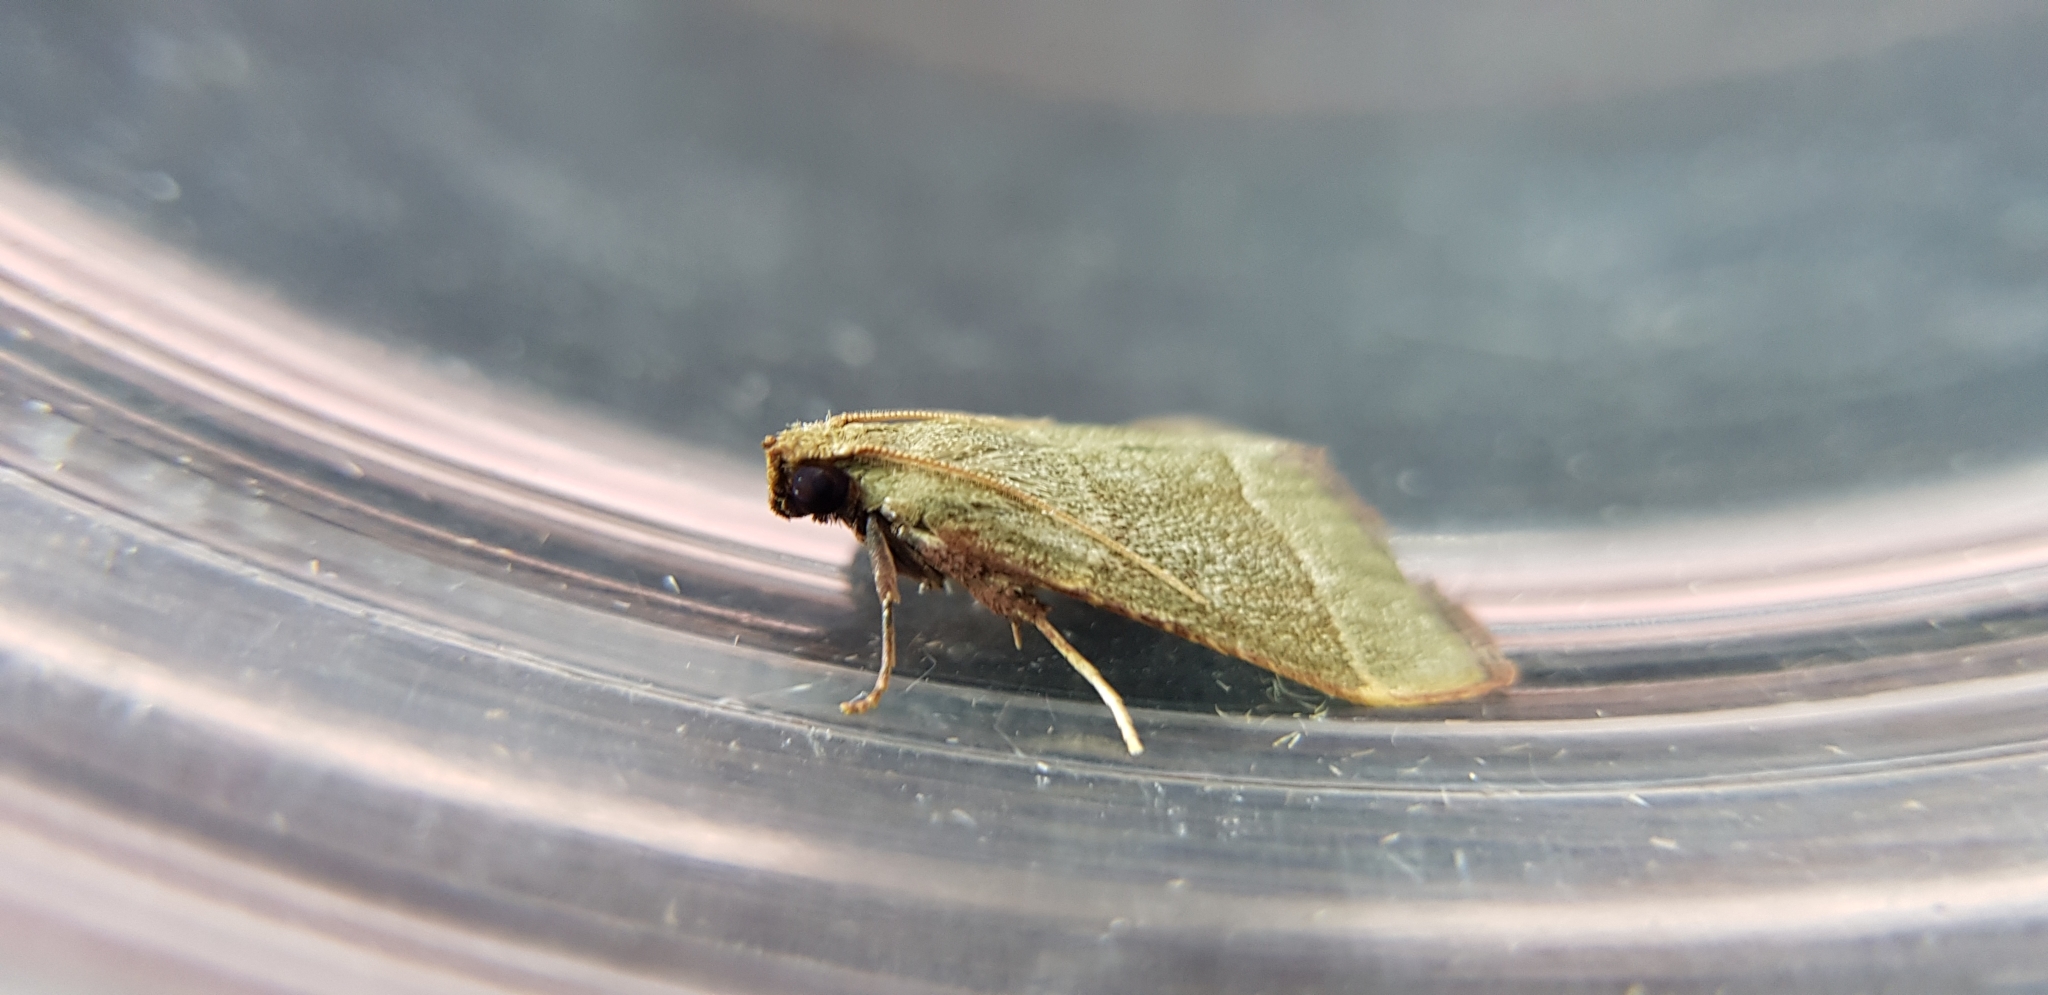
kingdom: Animalia
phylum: Arthropoda
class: Insecta
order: Lepidoptera
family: Pyralidae
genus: Hypsopygia
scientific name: Hypsopygia
